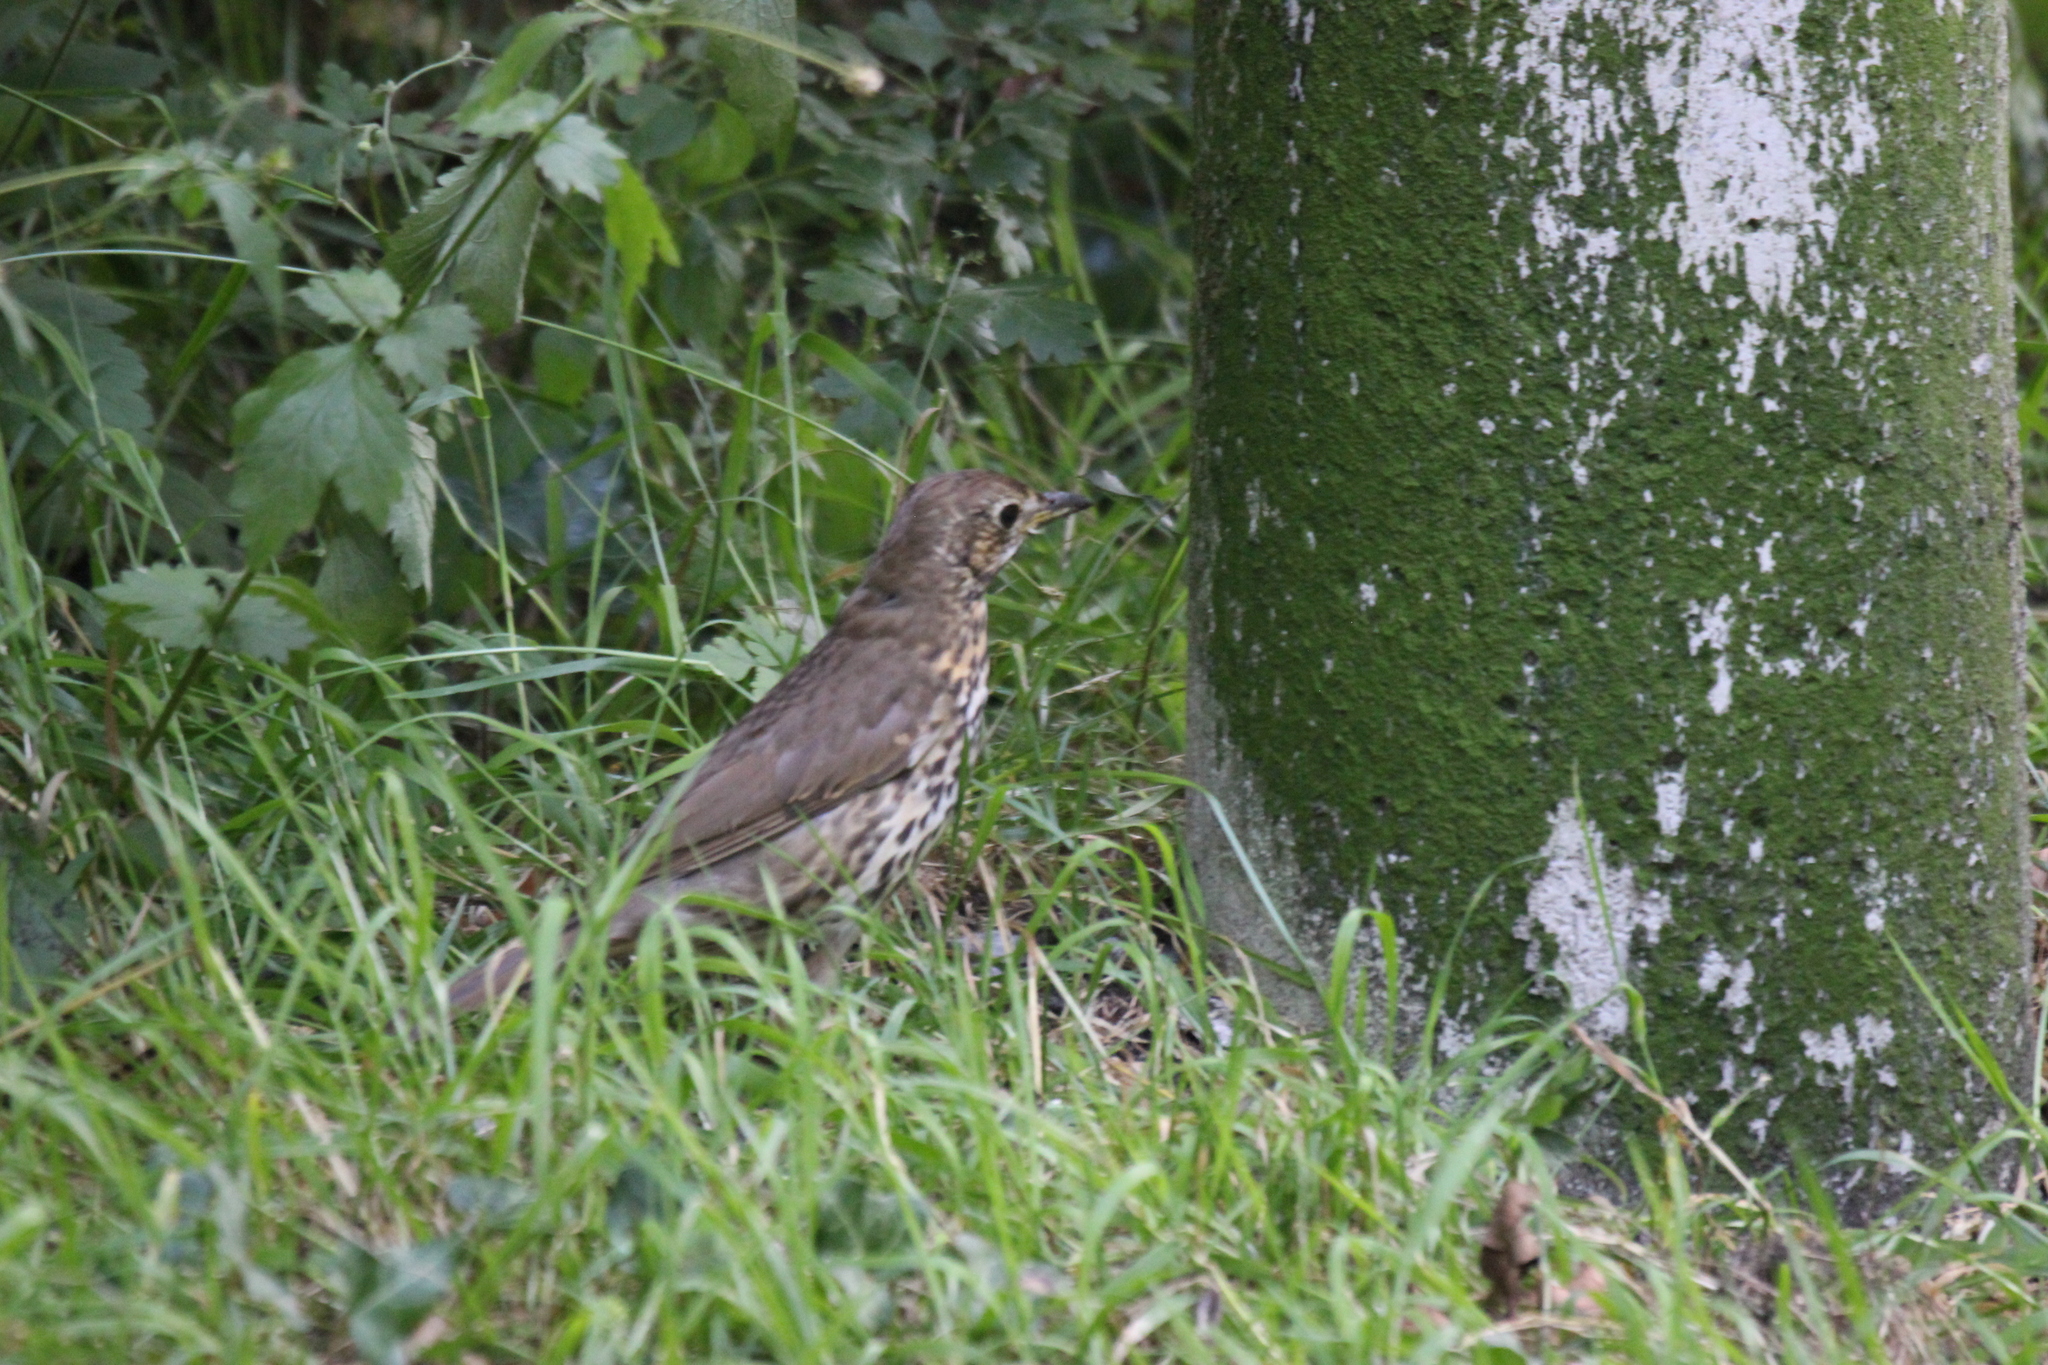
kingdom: Animalia
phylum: Chordata
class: Aves
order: Passeriformes
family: Turdidae
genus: Turdus
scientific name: Turdus philomelos
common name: Song thrush
